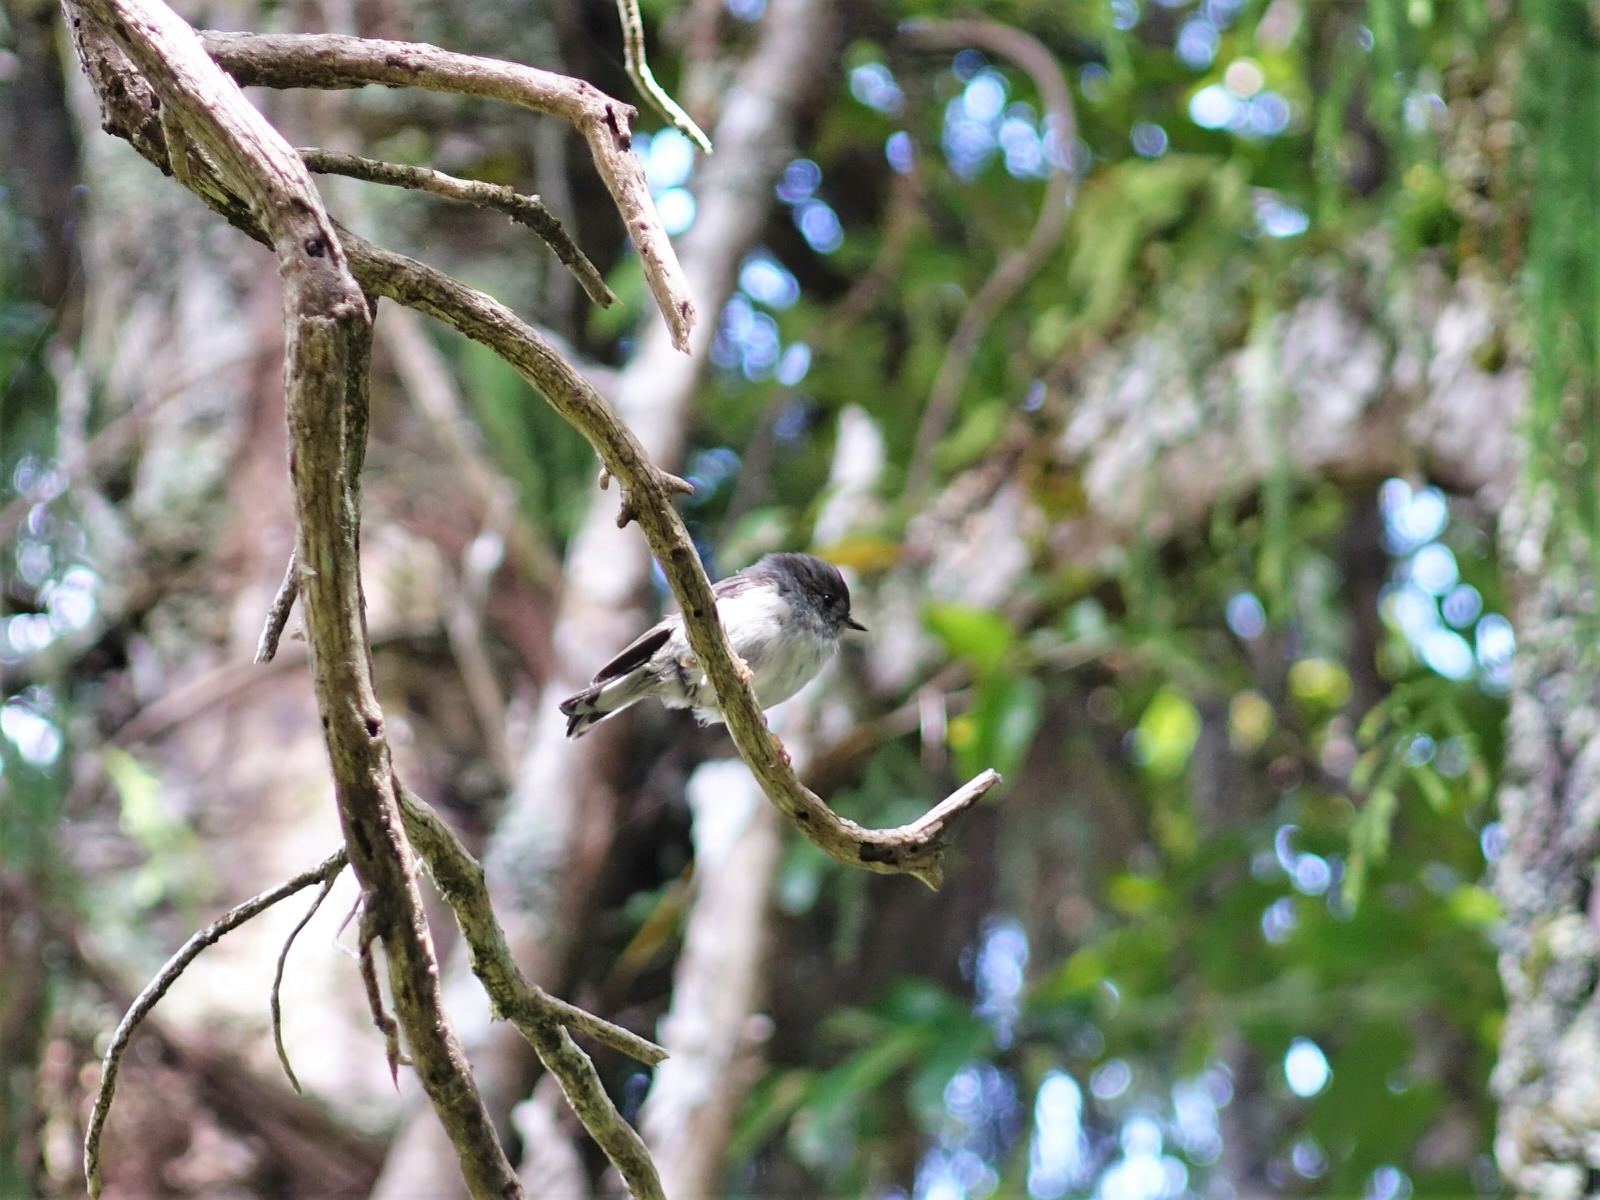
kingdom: Animalia
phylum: Chordata
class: Aves
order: Passeriformes
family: Petroicidae
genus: Petroica
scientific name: Petroica macrocephala
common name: Tomtit
